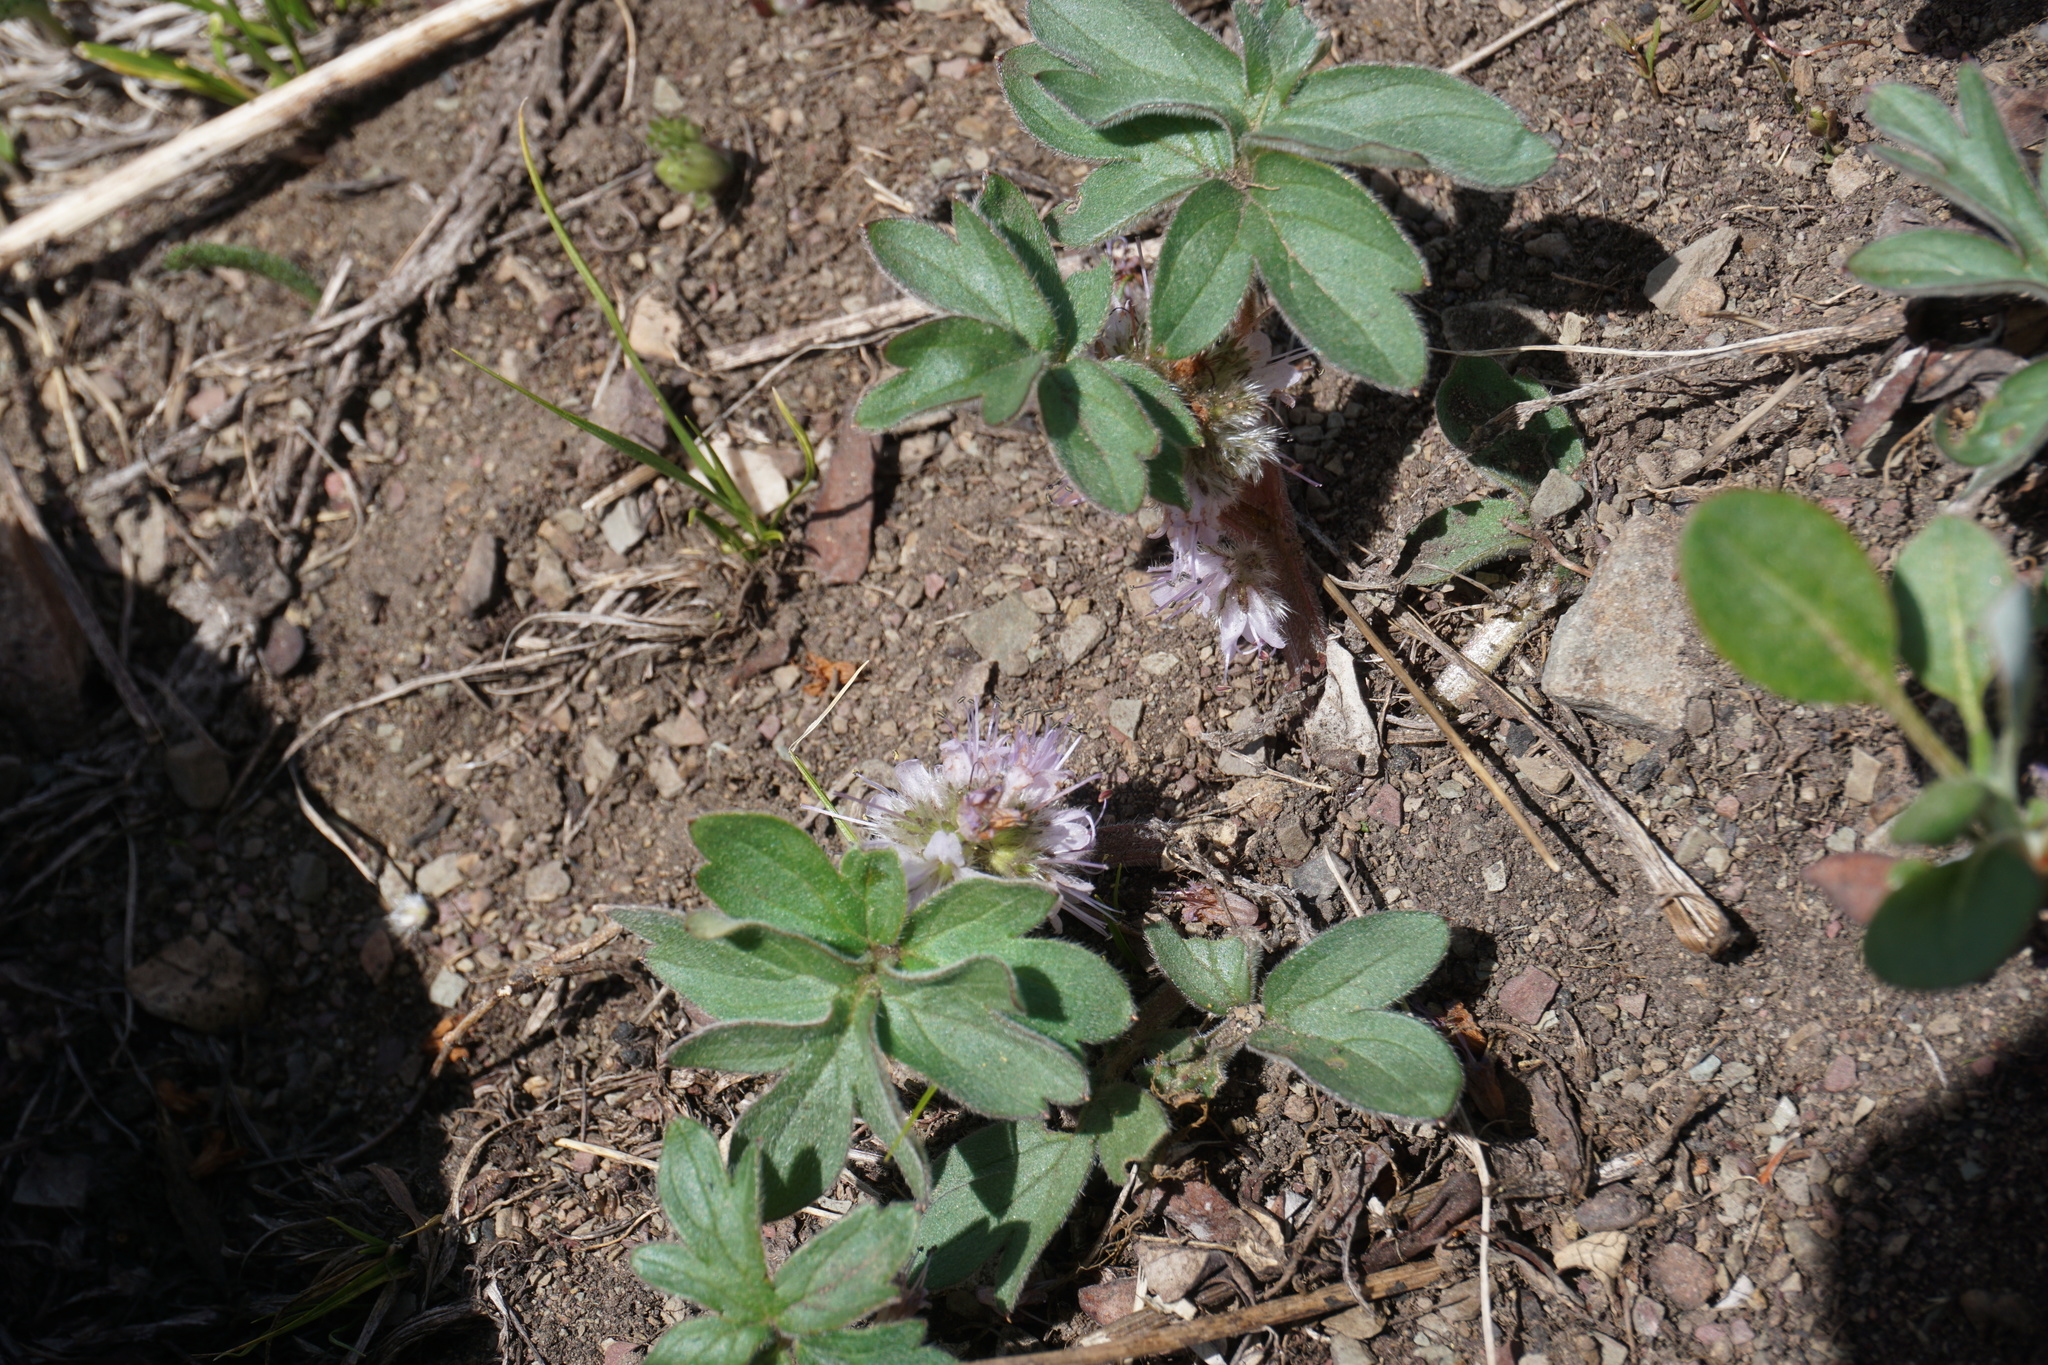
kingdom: Plantae
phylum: Tracheophyta
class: Magnoliopsida
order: Boraginales
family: Hydrophyllaceae
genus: Hydrophyllum
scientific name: Hydrophyllum capitatum
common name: Woollen-breeches
